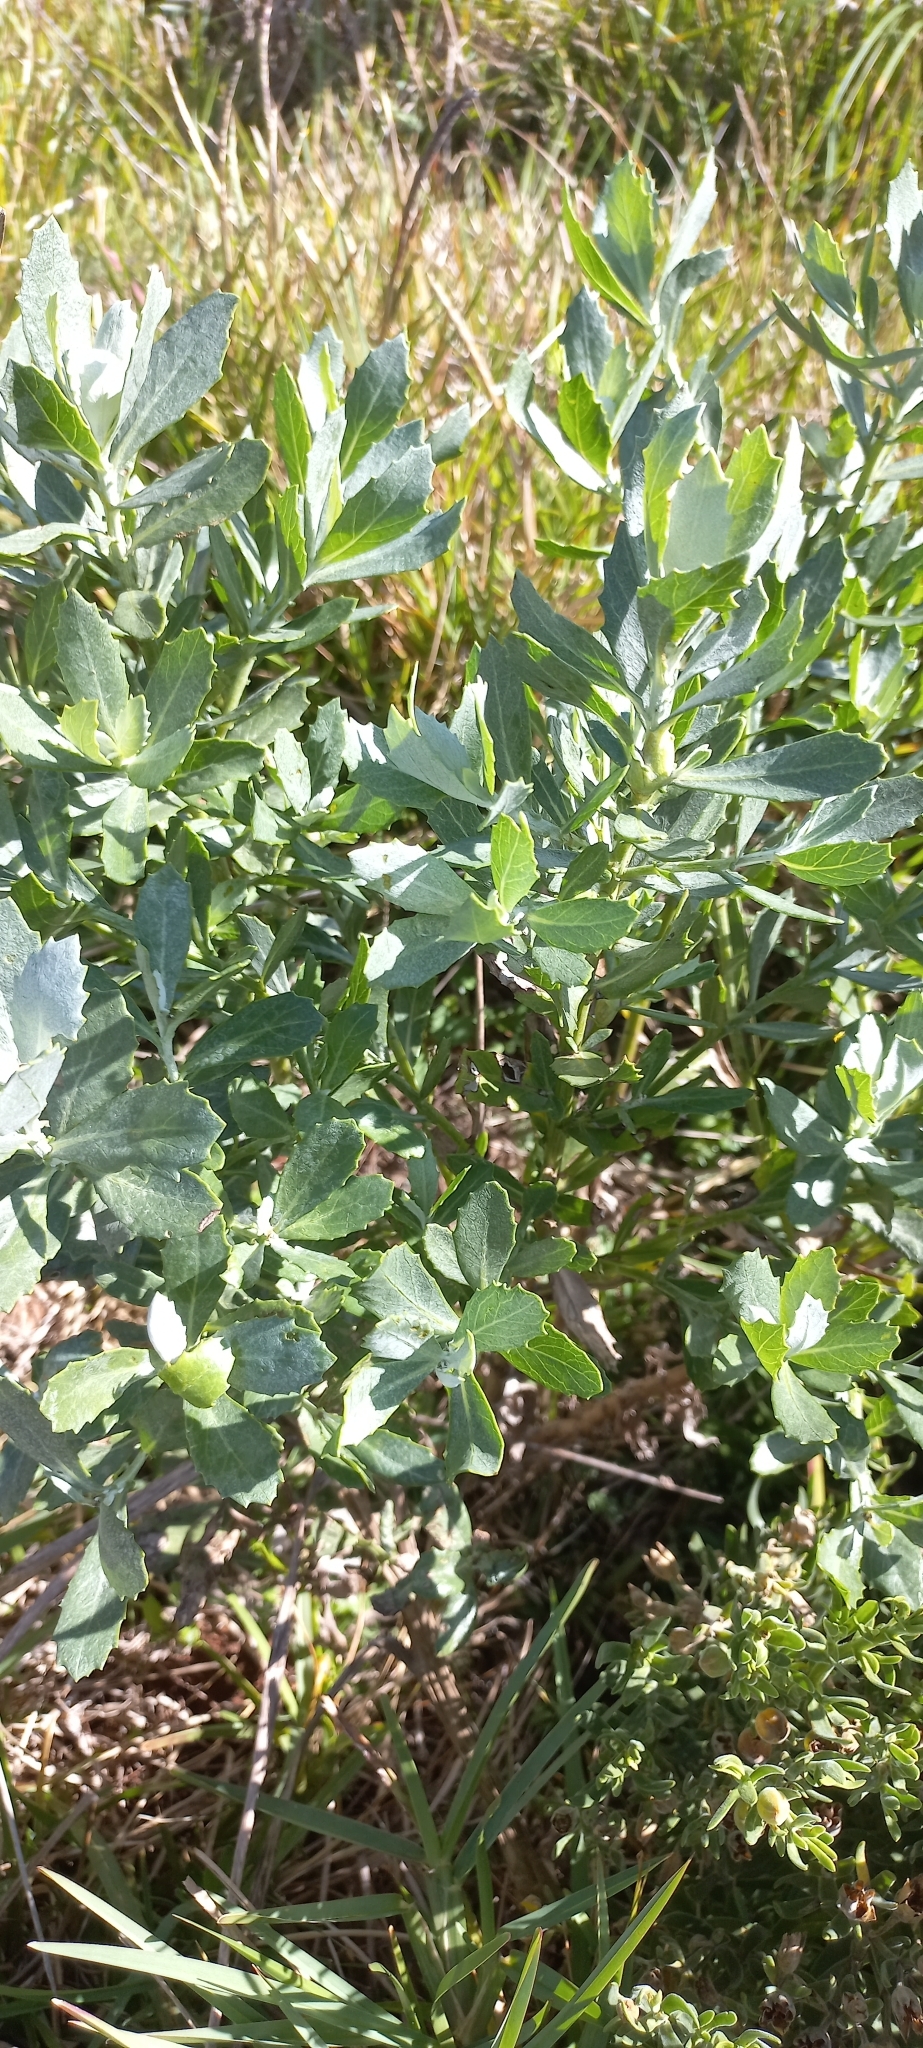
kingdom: Plantae
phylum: Tracheophyta
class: Magnoliopsida
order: Asterales
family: Asteraceae
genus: Senecio
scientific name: Senecio halimifolius
